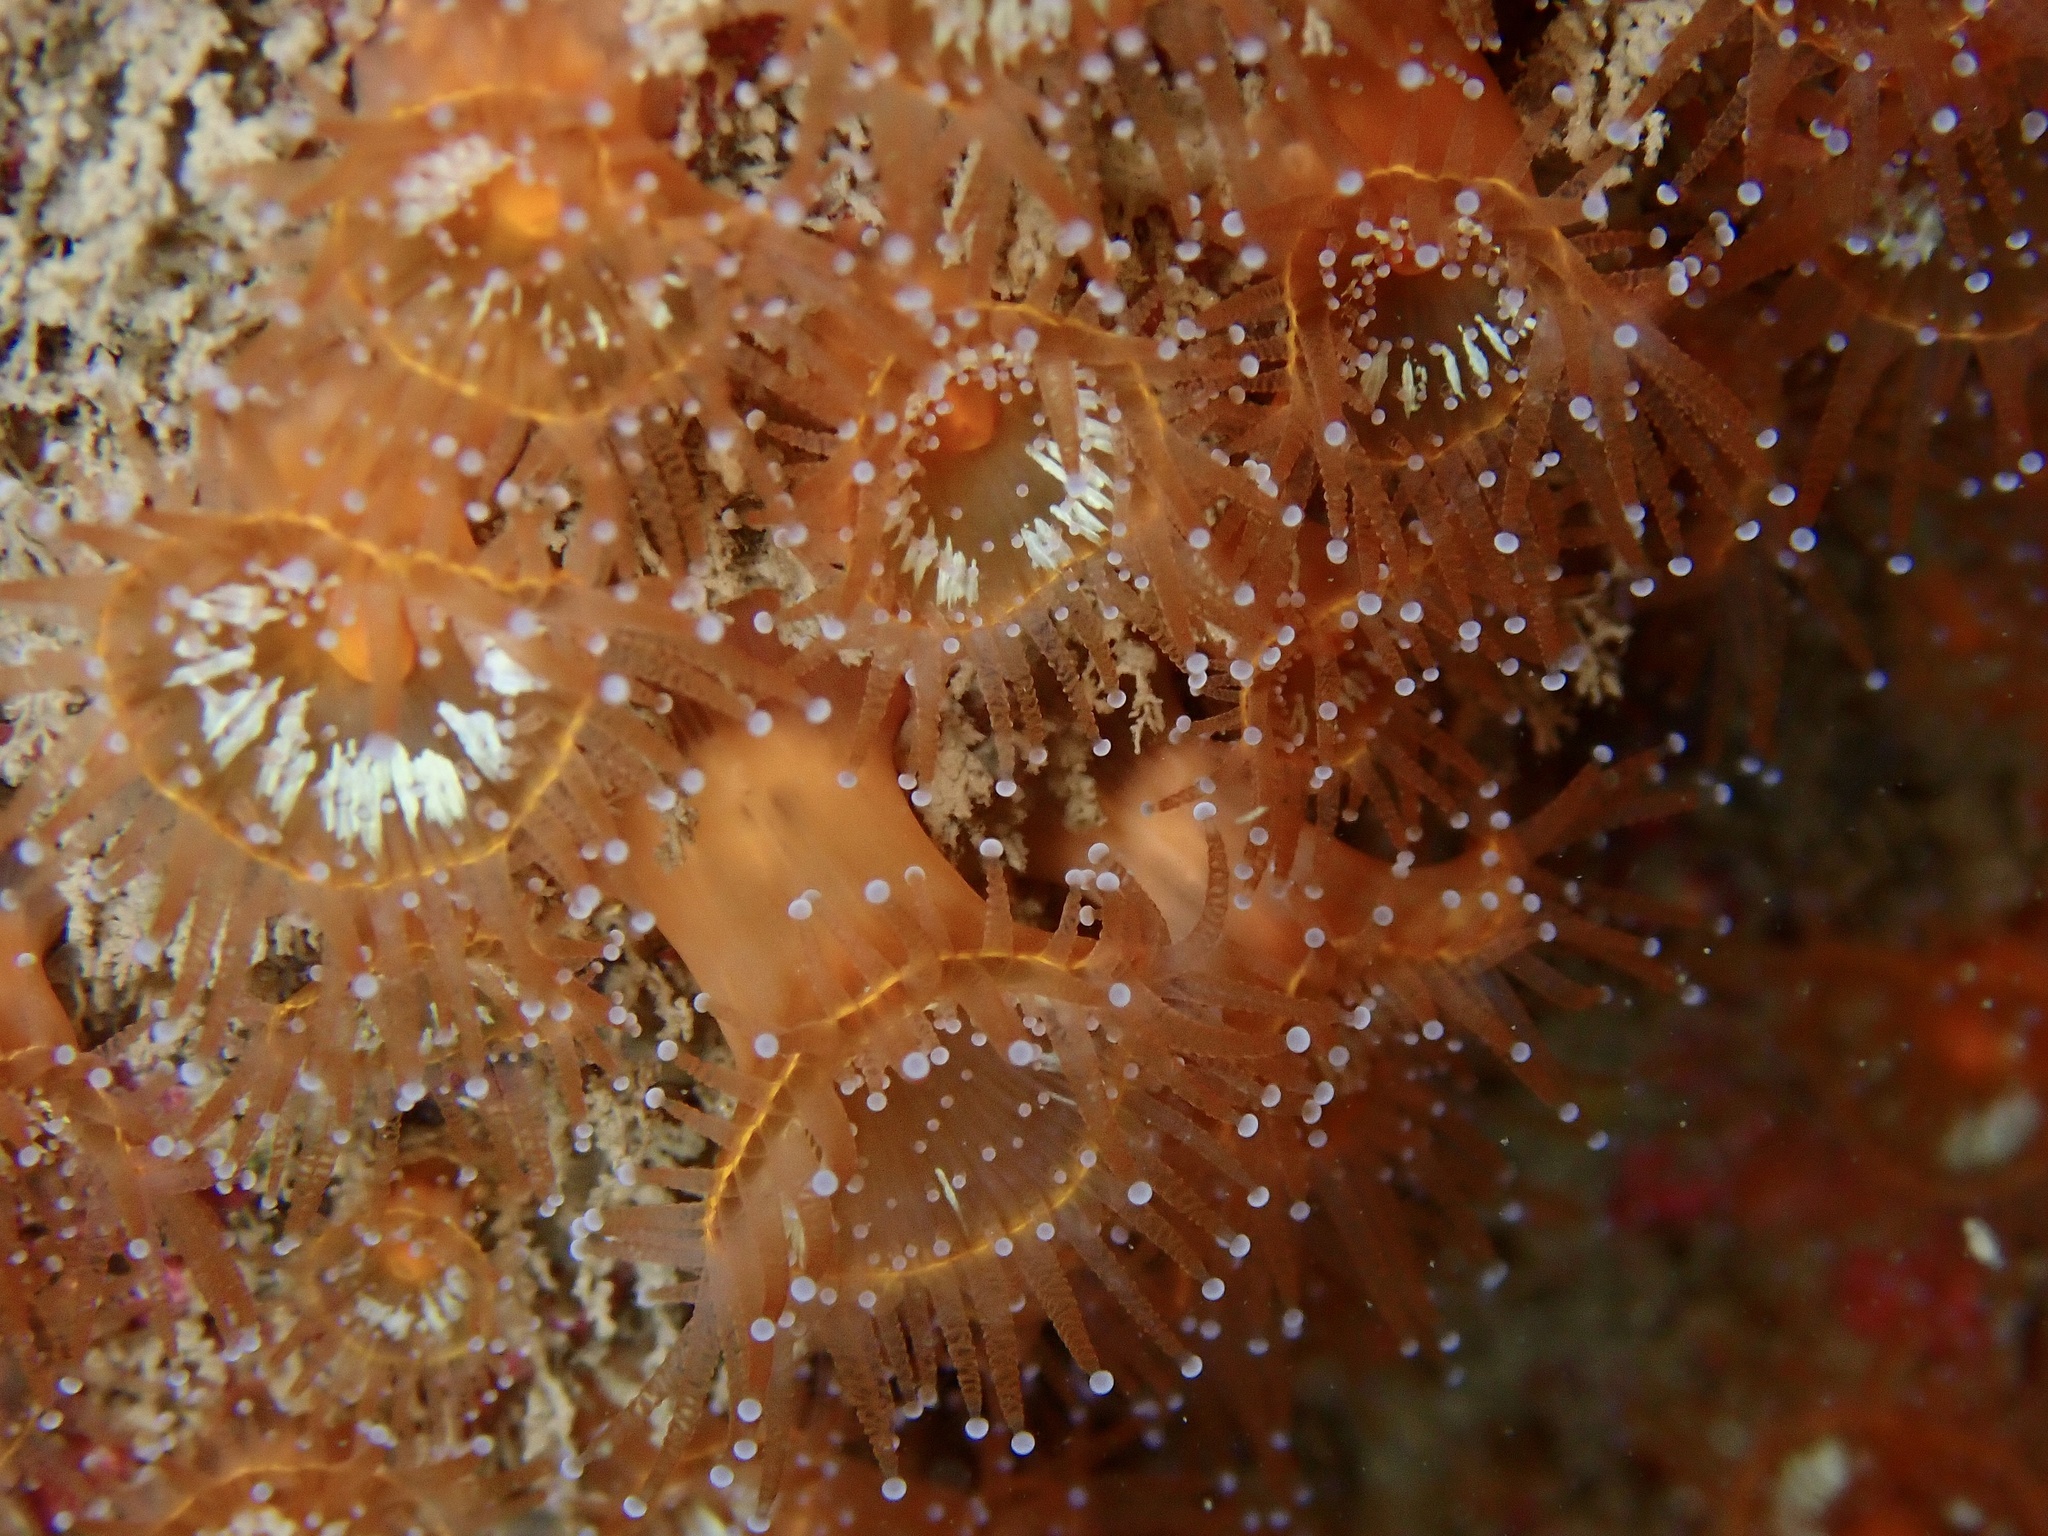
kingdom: Animalia
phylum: Cnidaria
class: Anthozoa
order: Corallimorpharia
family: Corallimorphidae
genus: Corynactis
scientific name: Corynactis viridis
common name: Jewel anemone
